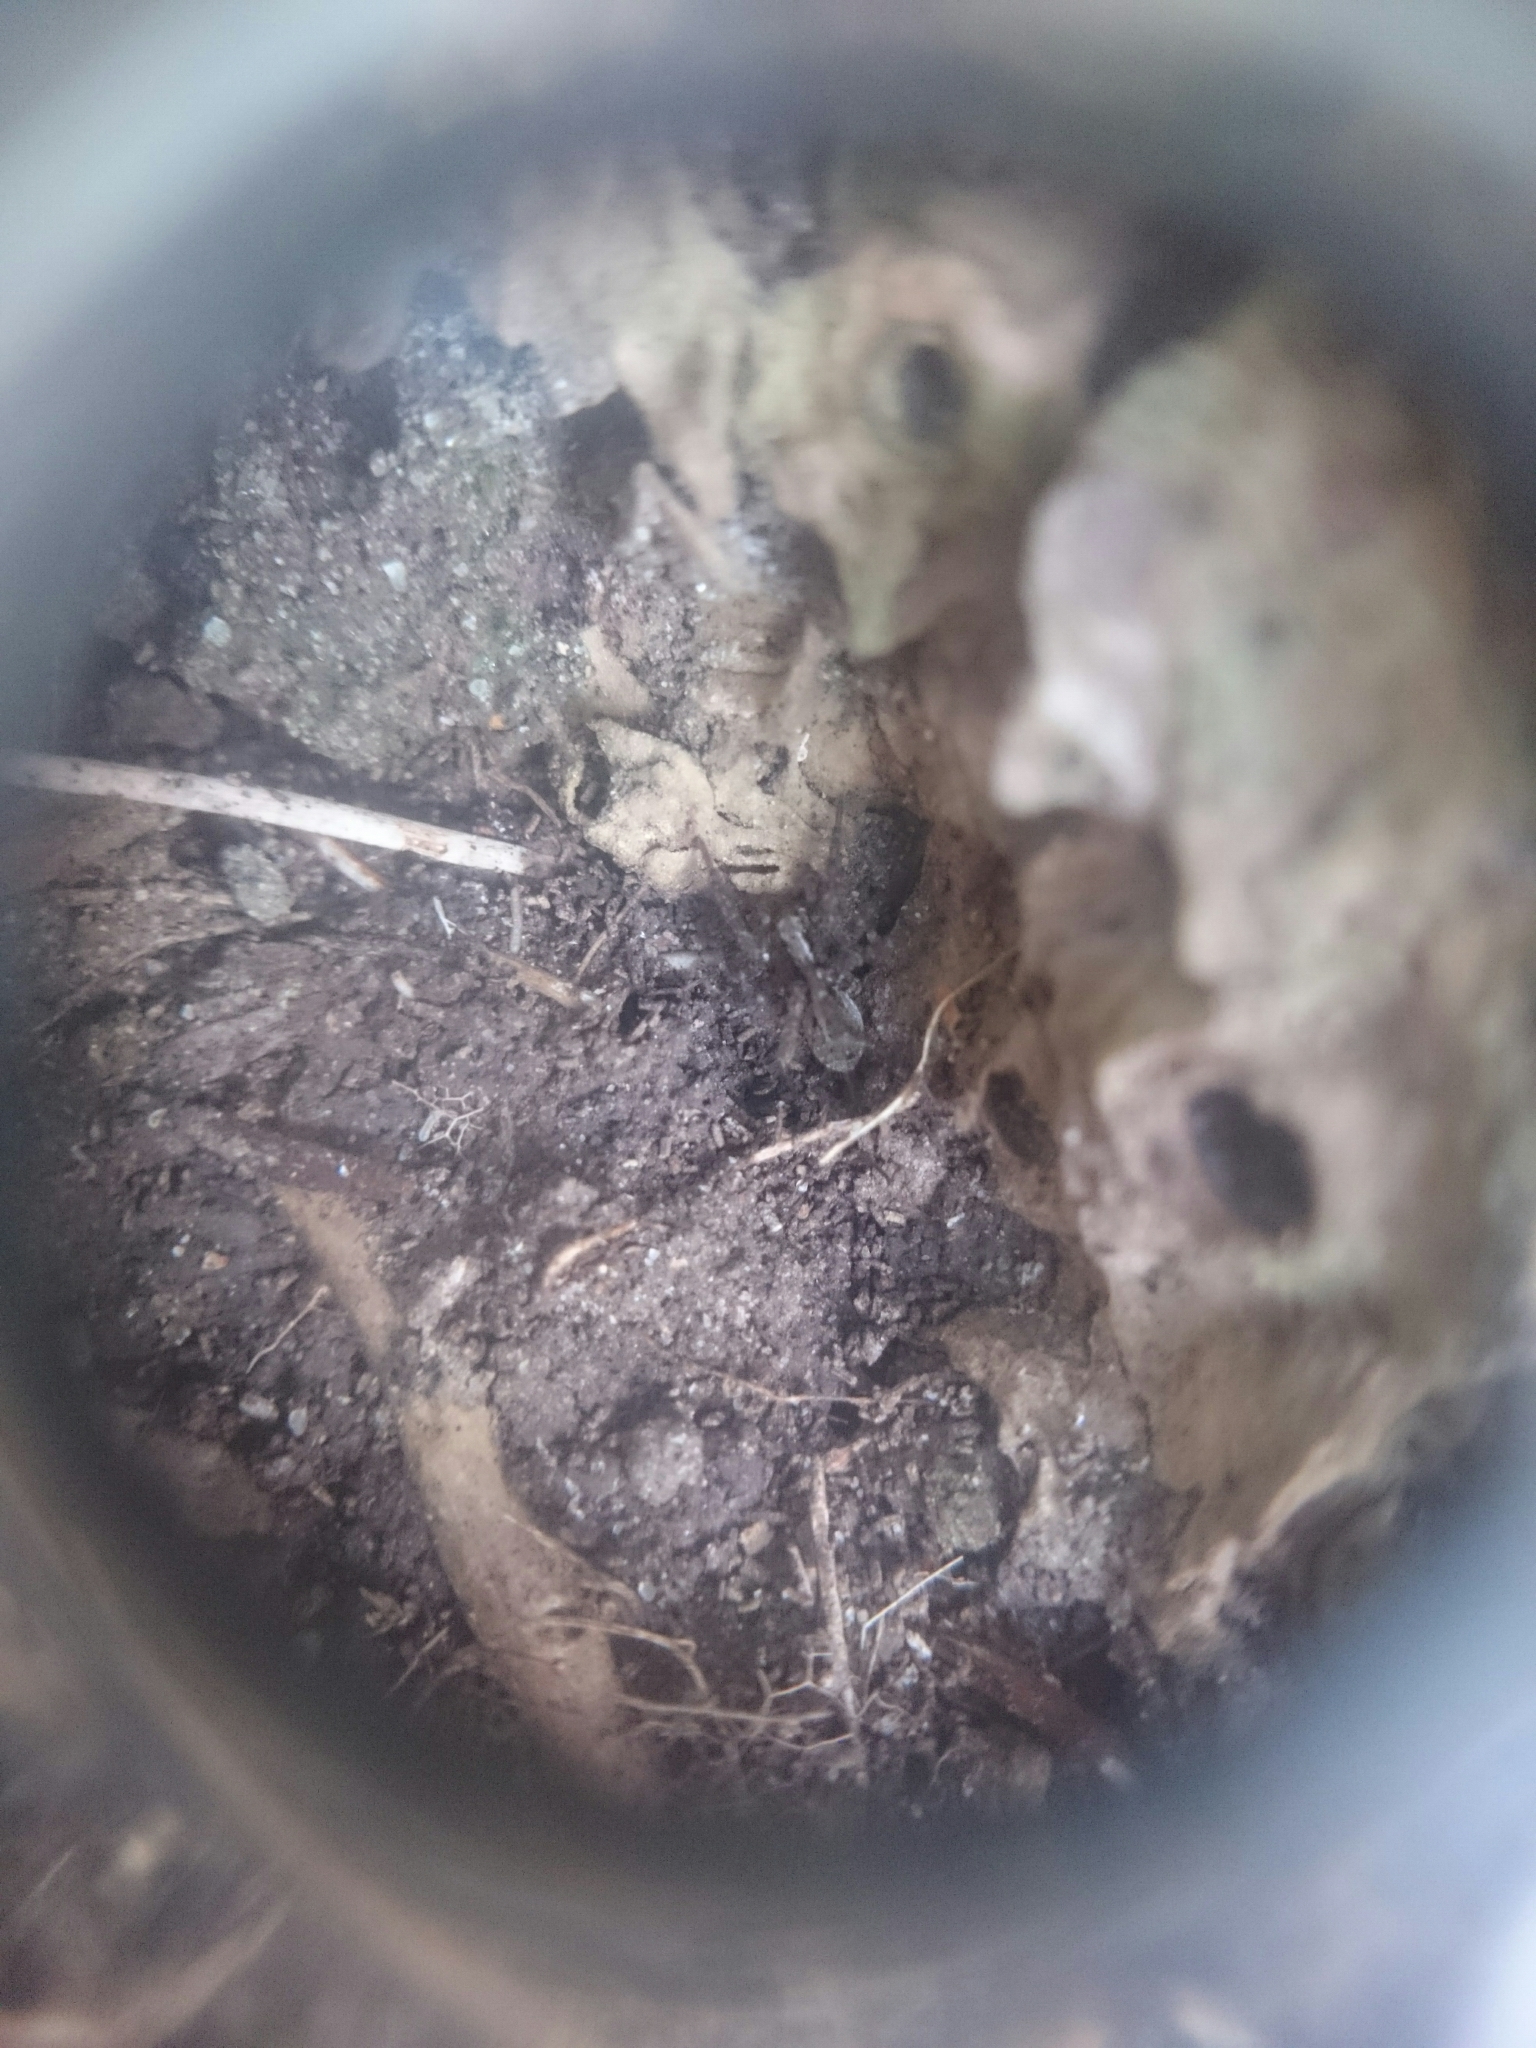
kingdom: Animalia
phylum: Arthropoda
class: Arachnida
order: Araneae
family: Lycosidae
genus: Anoteropsis
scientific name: Anoteropsis hilaris
